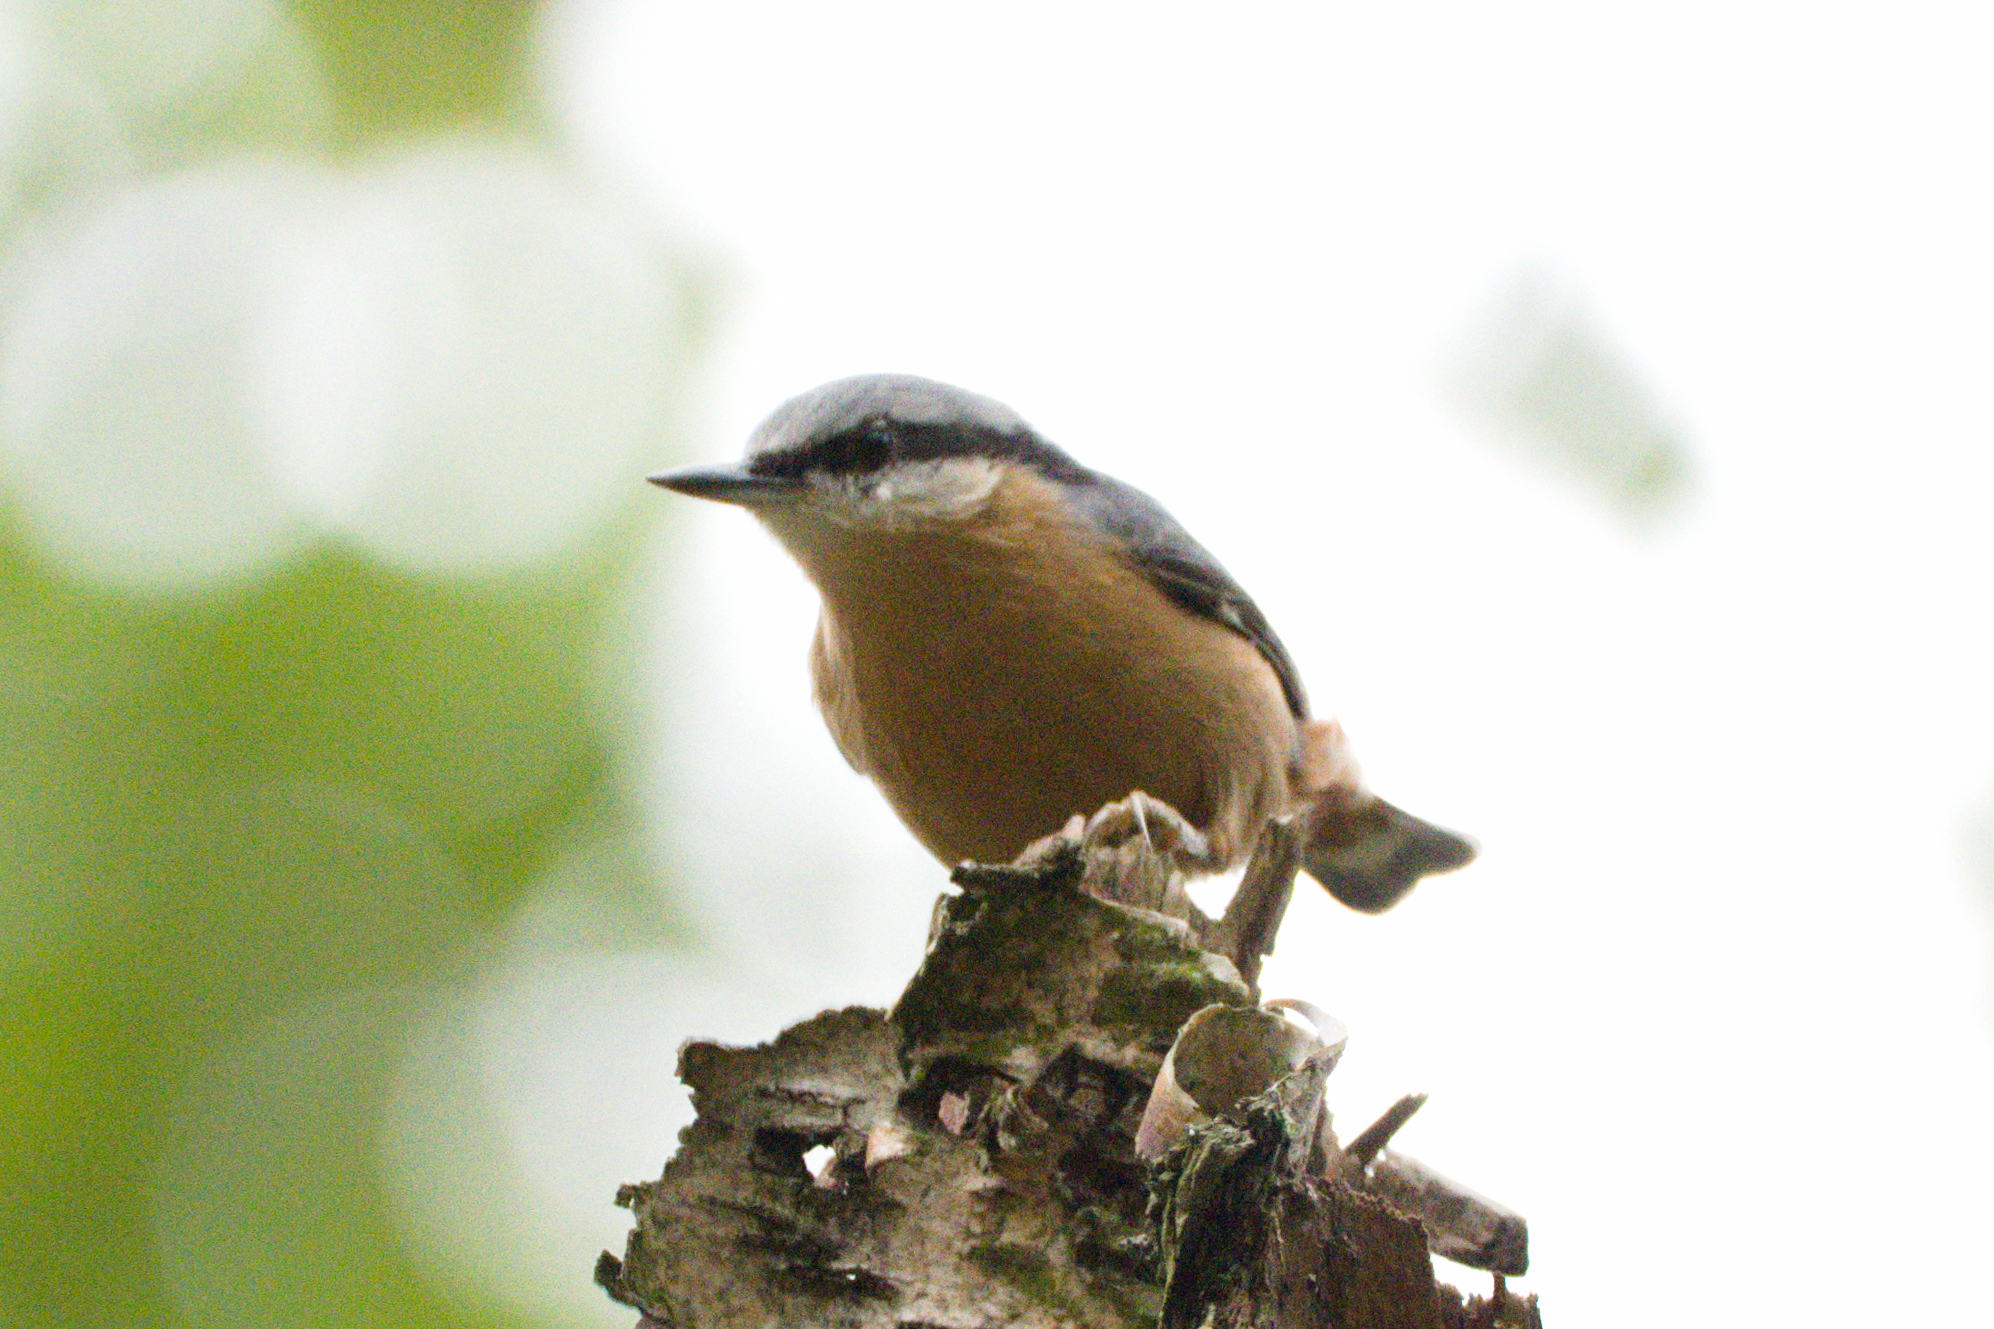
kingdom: Animalia
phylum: Chordata
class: Aves
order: Passeriformes
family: Sittidae
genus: Sitta
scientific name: Sitta europaea
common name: Eurasian nuthatch
